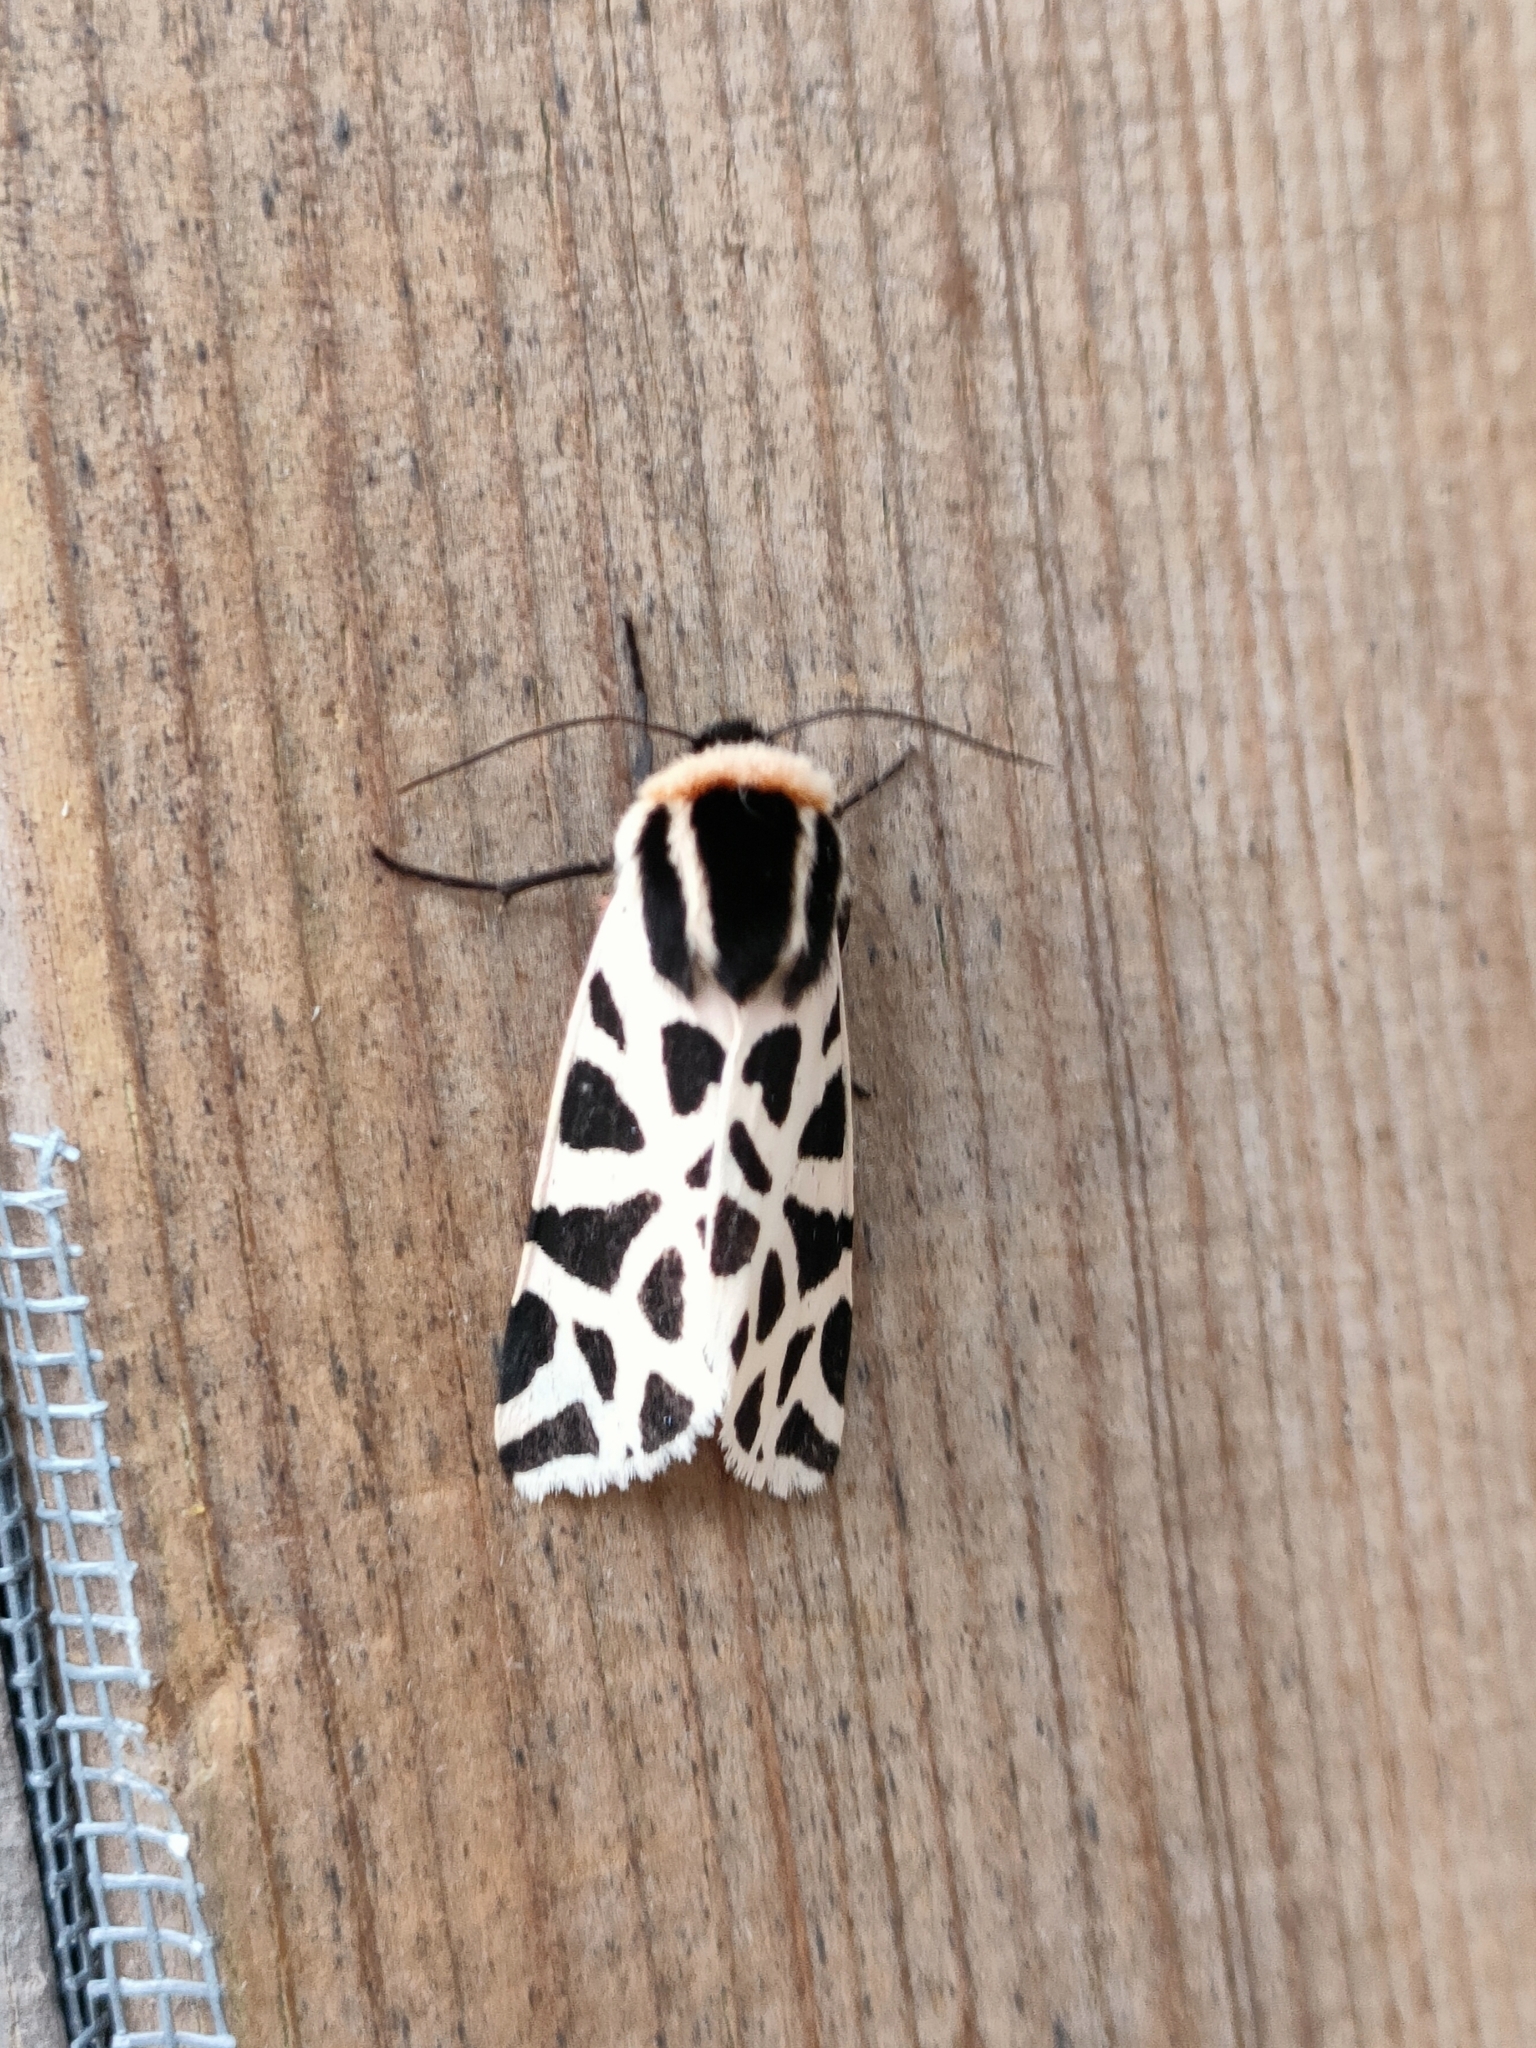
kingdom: Animalia
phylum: Arthropoda
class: Insecta
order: Lepidoptera
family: Erebidae
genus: Cymbalophora
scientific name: Cymbalophora pudica
